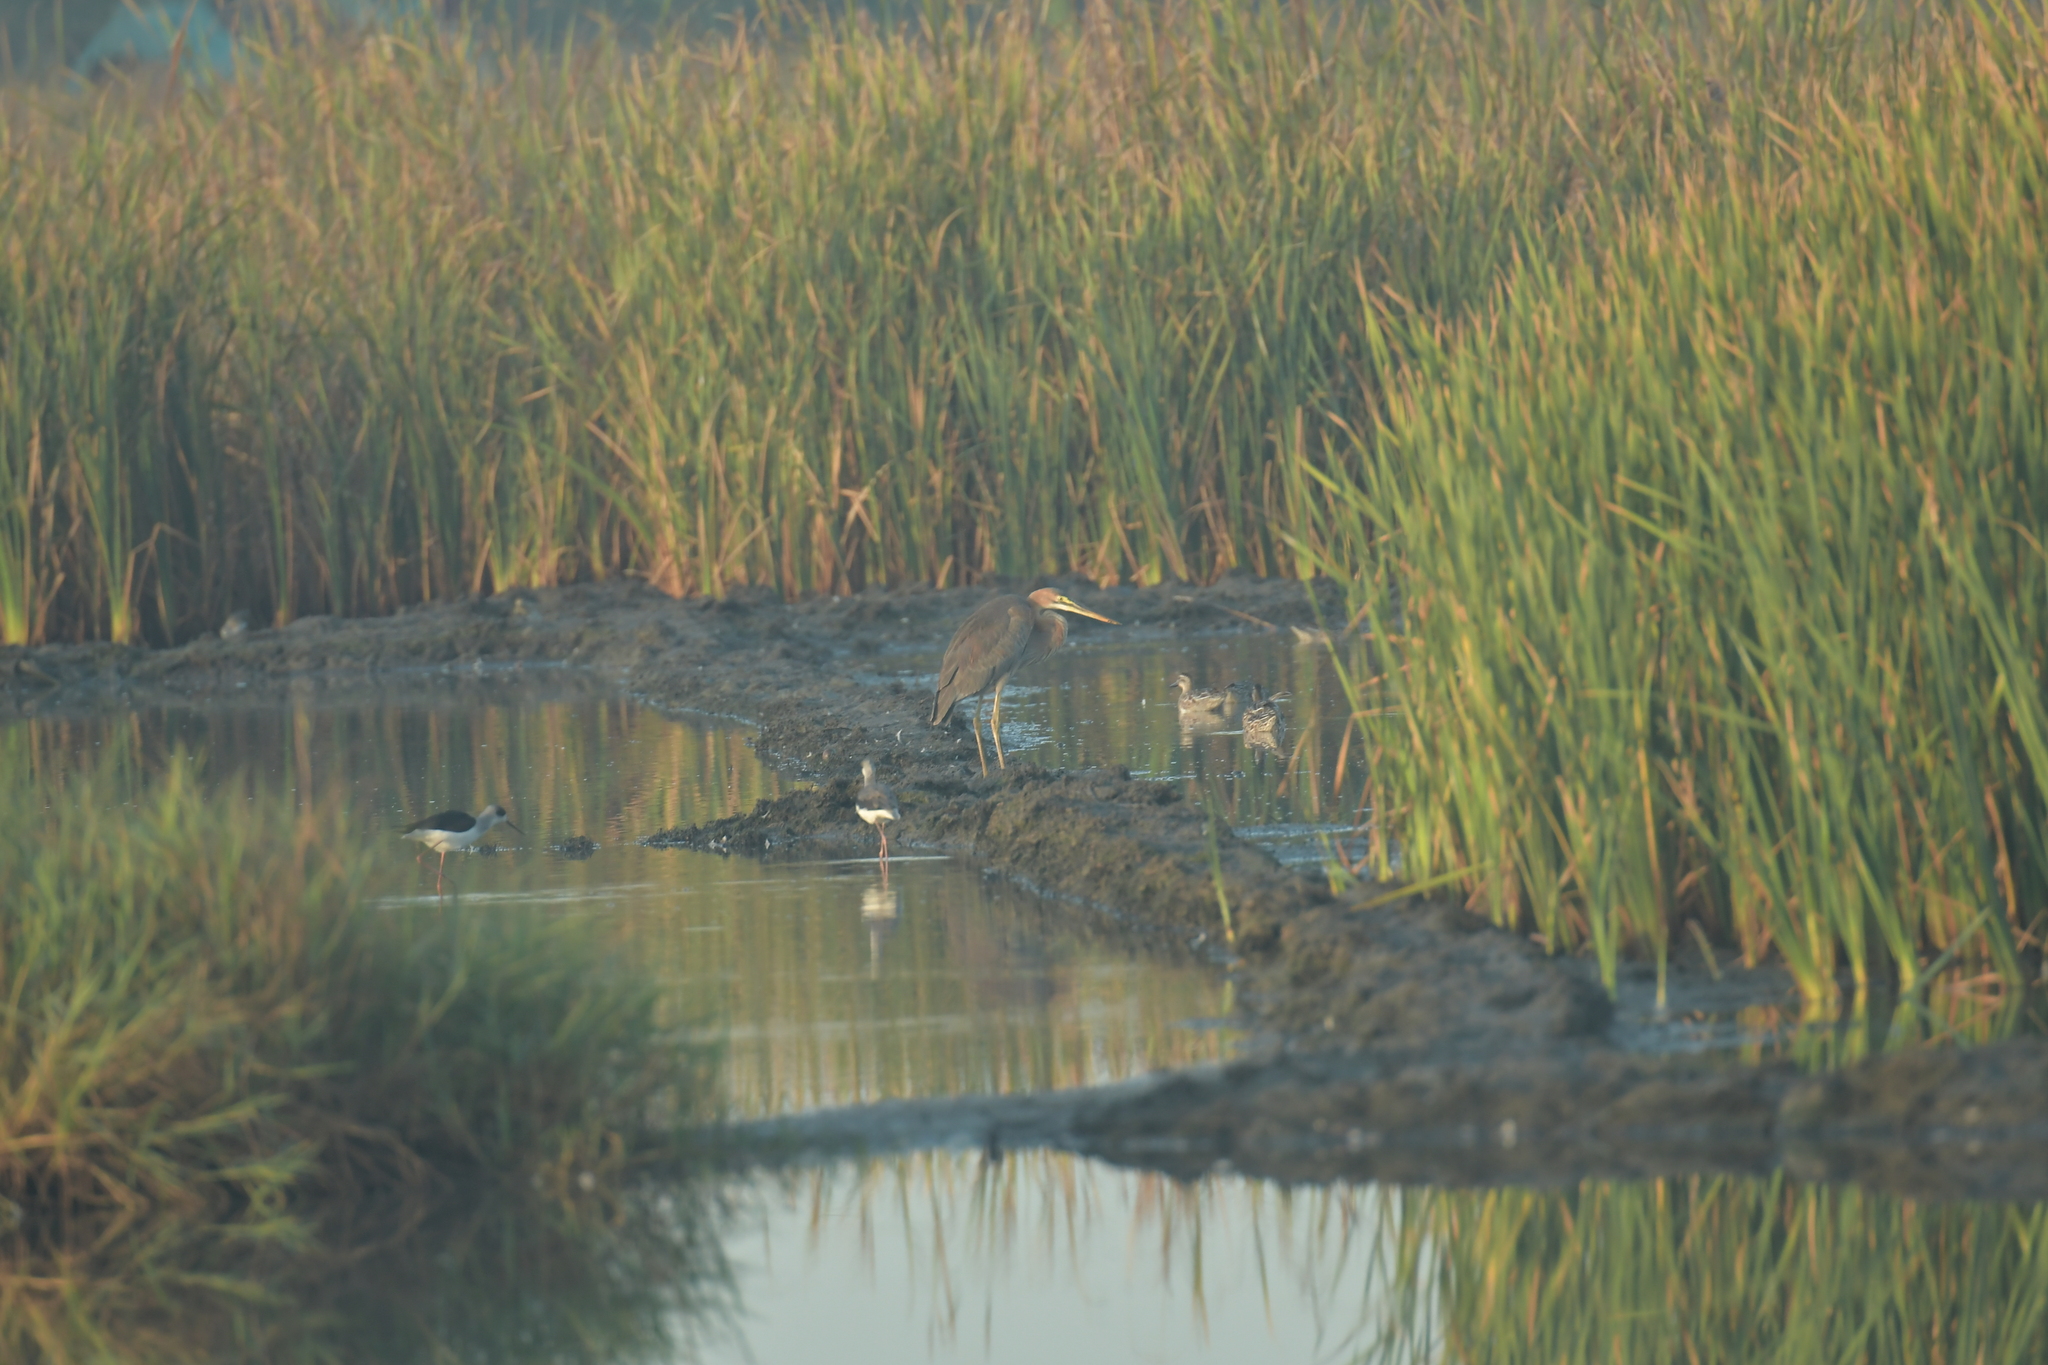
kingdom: Animalia
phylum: Chordata
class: Aves
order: Pelecaniformes
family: Ardeidae
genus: Ardea
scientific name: Ardea purpurea
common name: Purple heron
